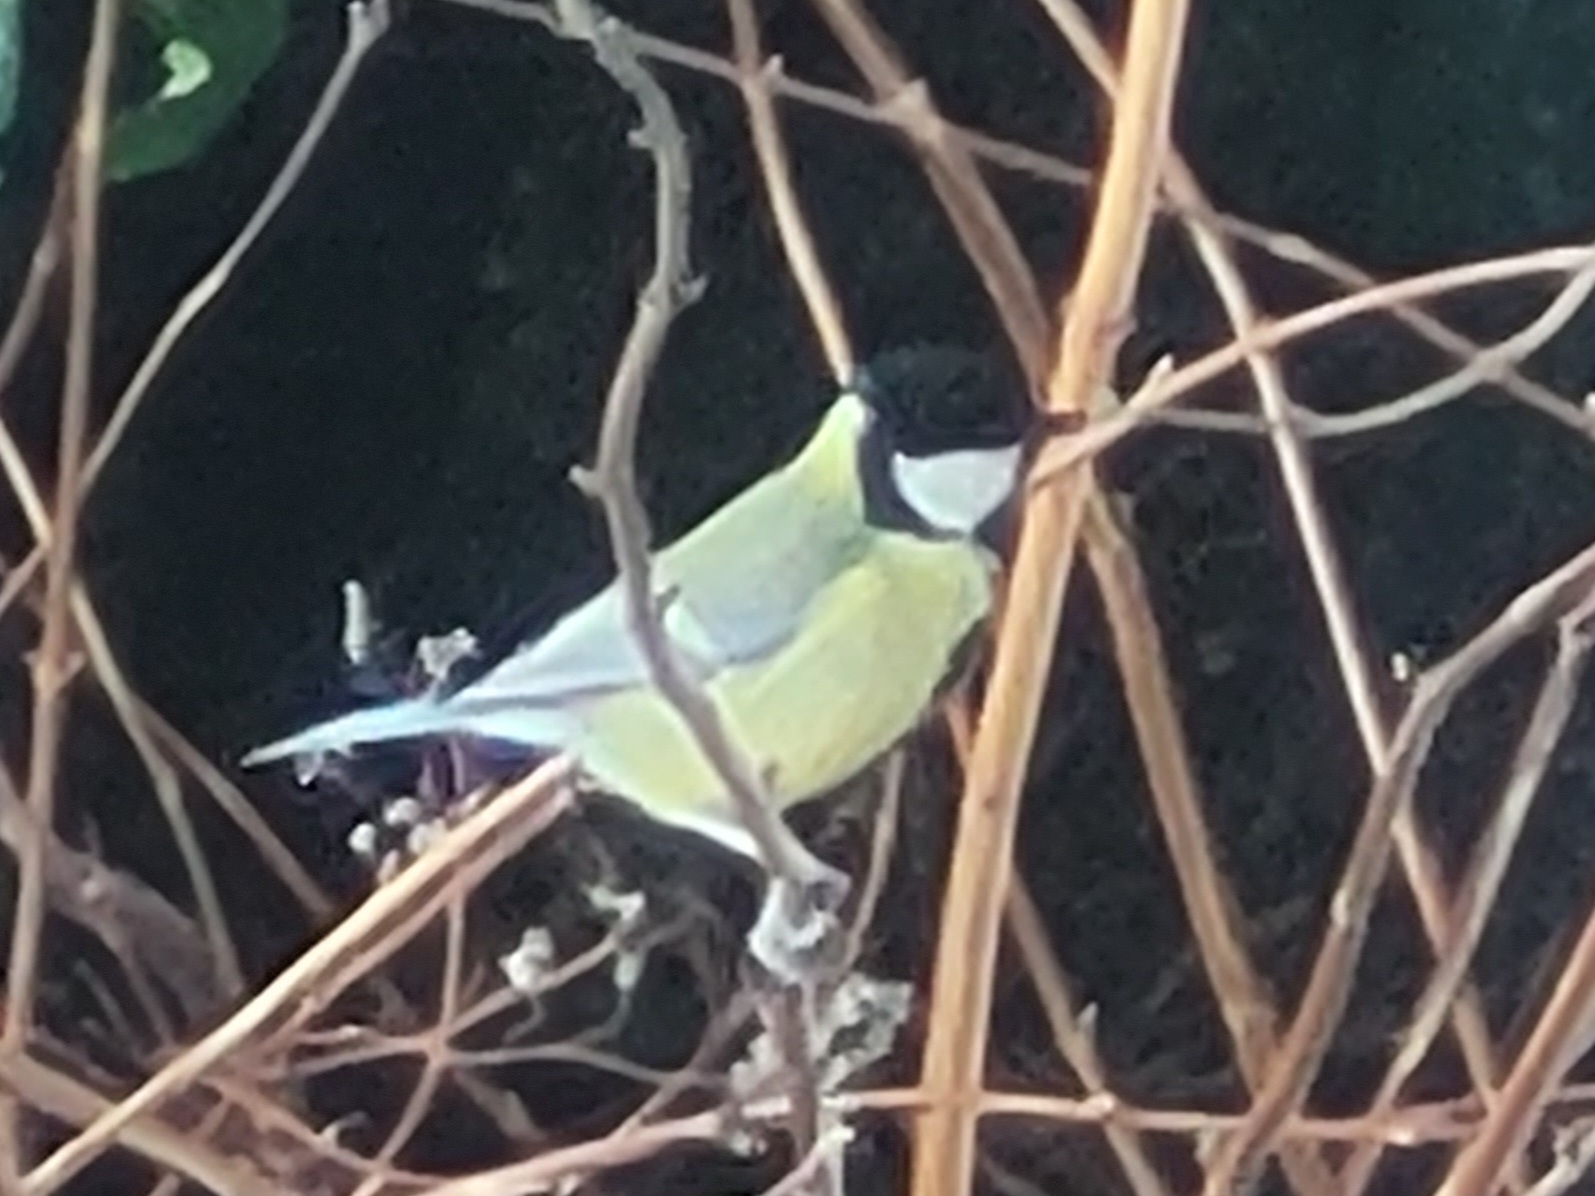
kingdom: Animalia
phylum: Chordata
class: Aves
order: Passeriformes
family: Paridae
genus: Parus
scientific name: Parus major
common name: Great tit
